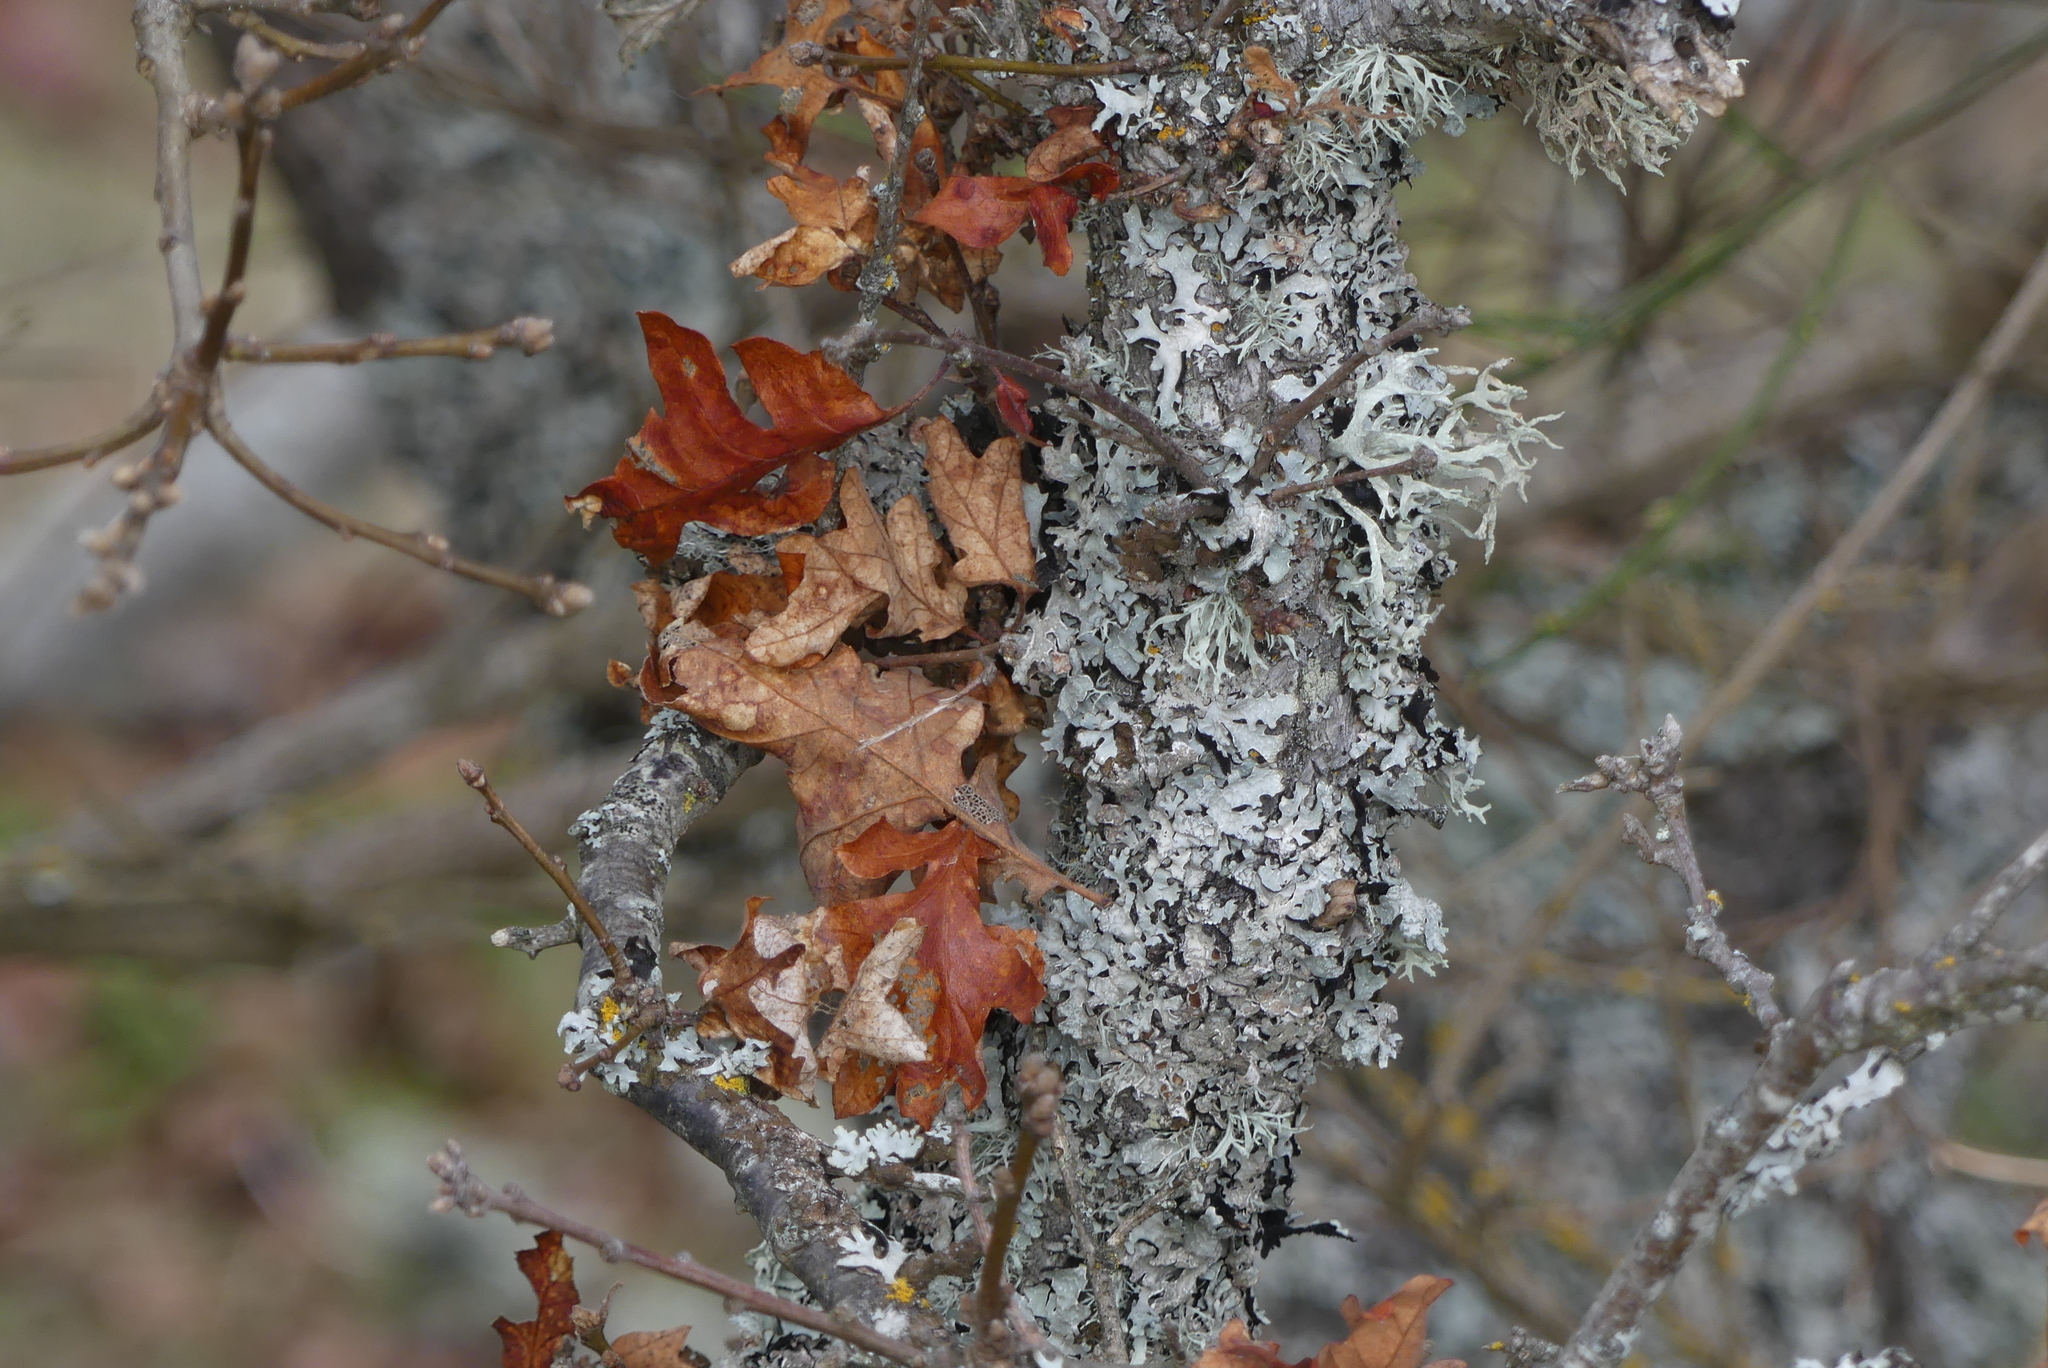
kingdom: Plantae
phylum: Tracheophyta
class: Magnoliopsida
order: Fagales
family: Fagaceae
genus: Quercus
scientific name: Quercus garryana
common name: Garry oak
